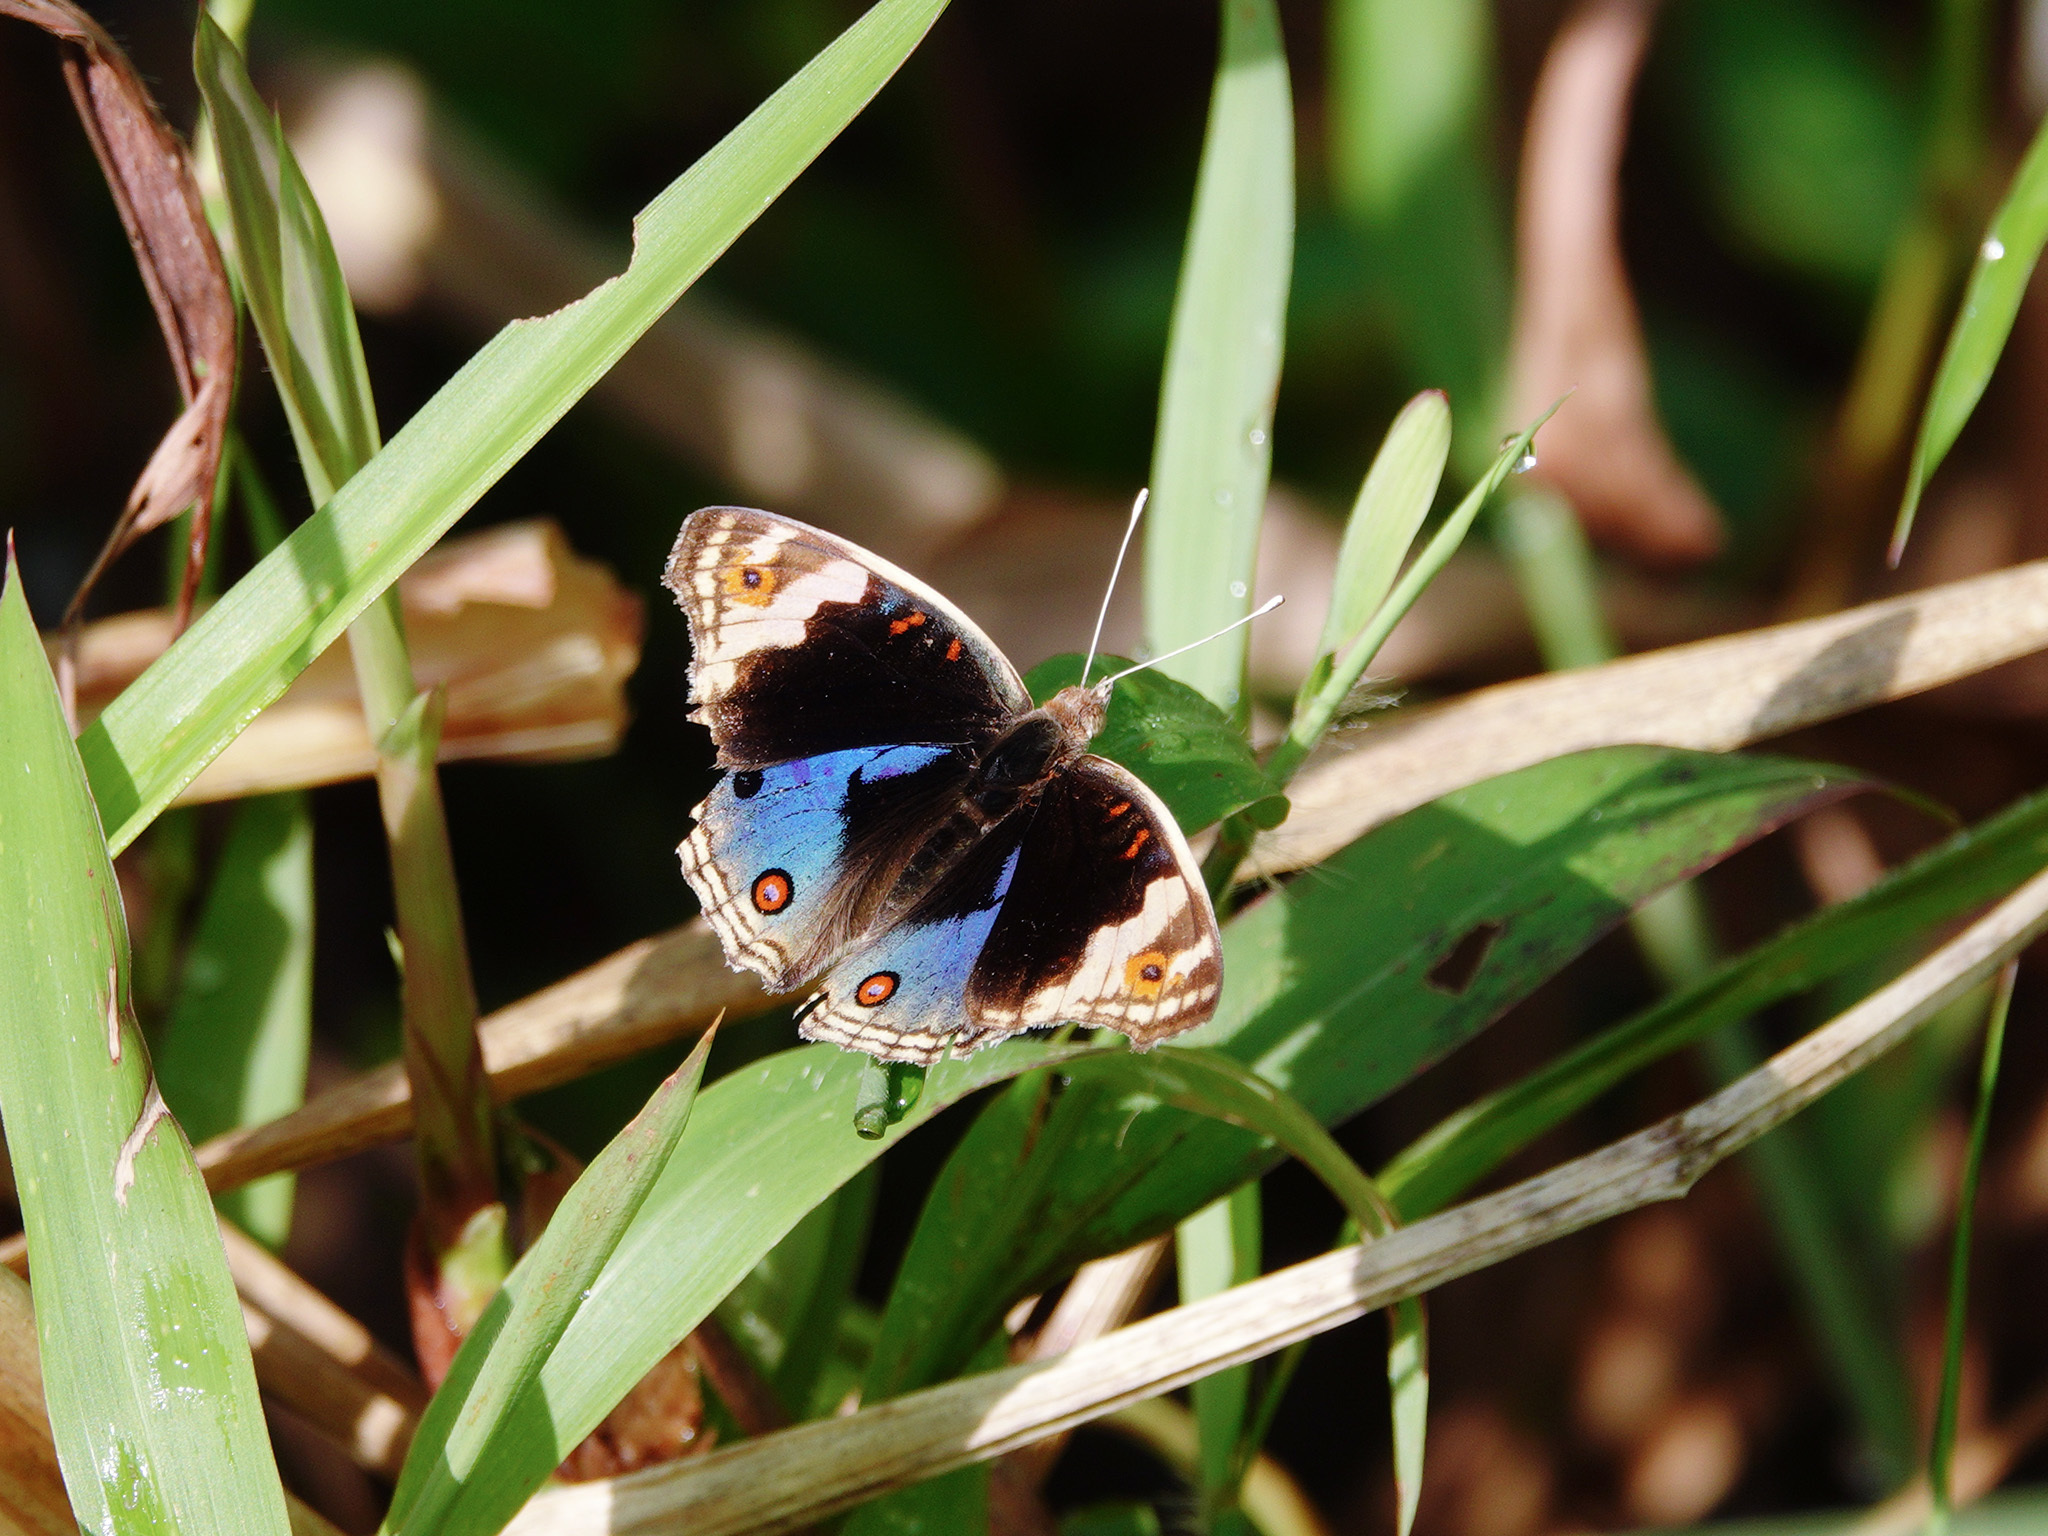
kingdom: Animalia
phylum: Arthropoda
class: Insecta
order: Lepidoptera
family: Nymphalidae
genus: Junonia
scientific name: Junonia orithya
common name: Blue pansy
